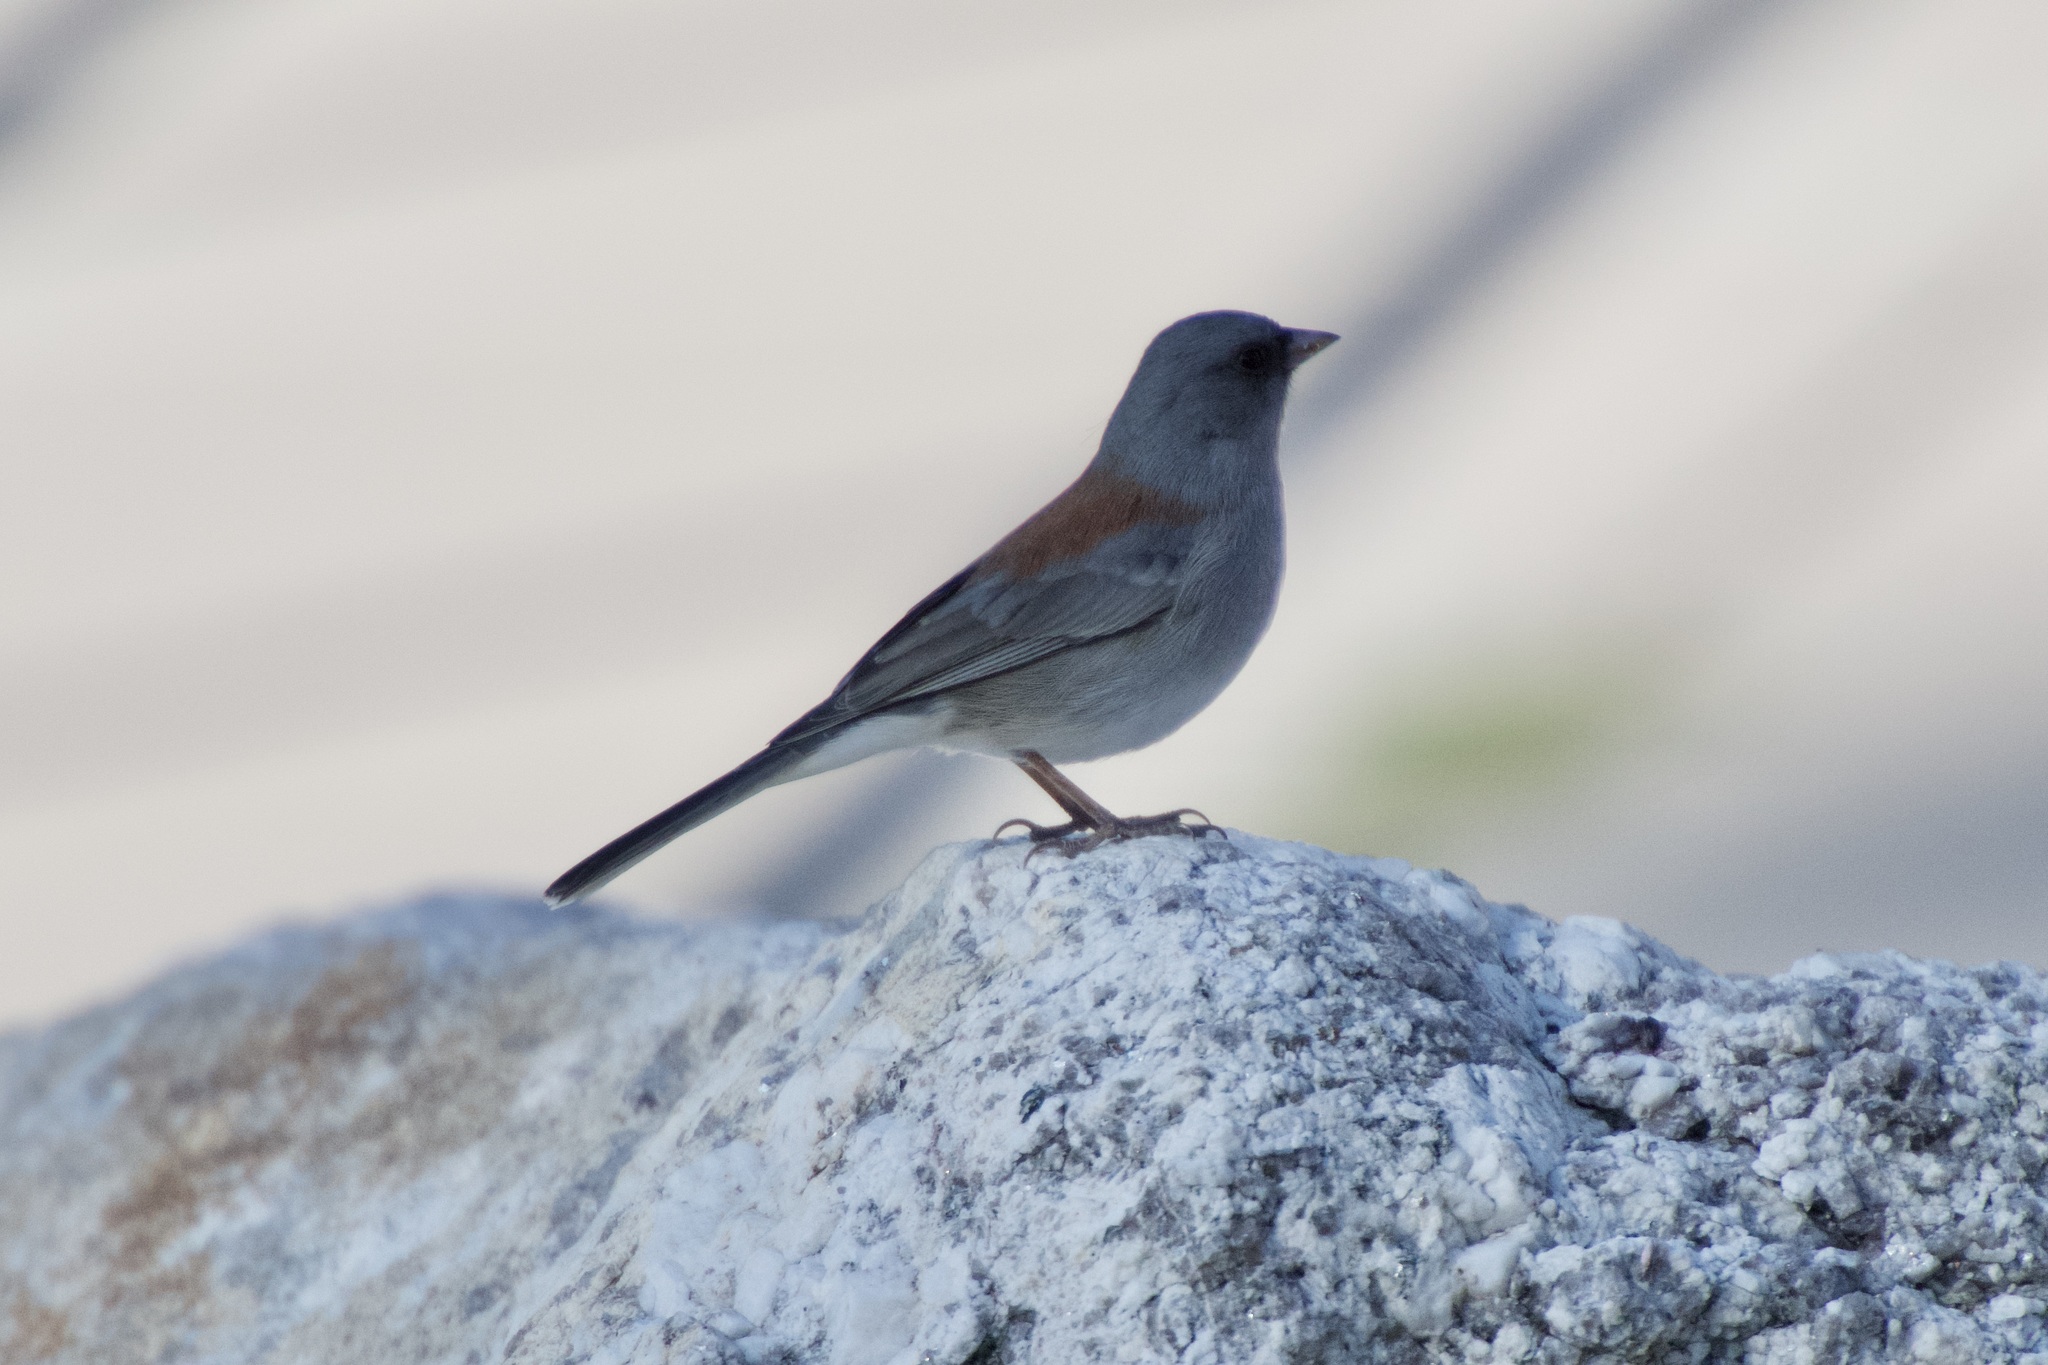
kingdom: Animalia
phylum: Chordata
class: Aves
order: Passeriformes
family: Passerellidae
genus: Junco
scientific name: Junco hyemalis
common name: Dark-eyed junco
